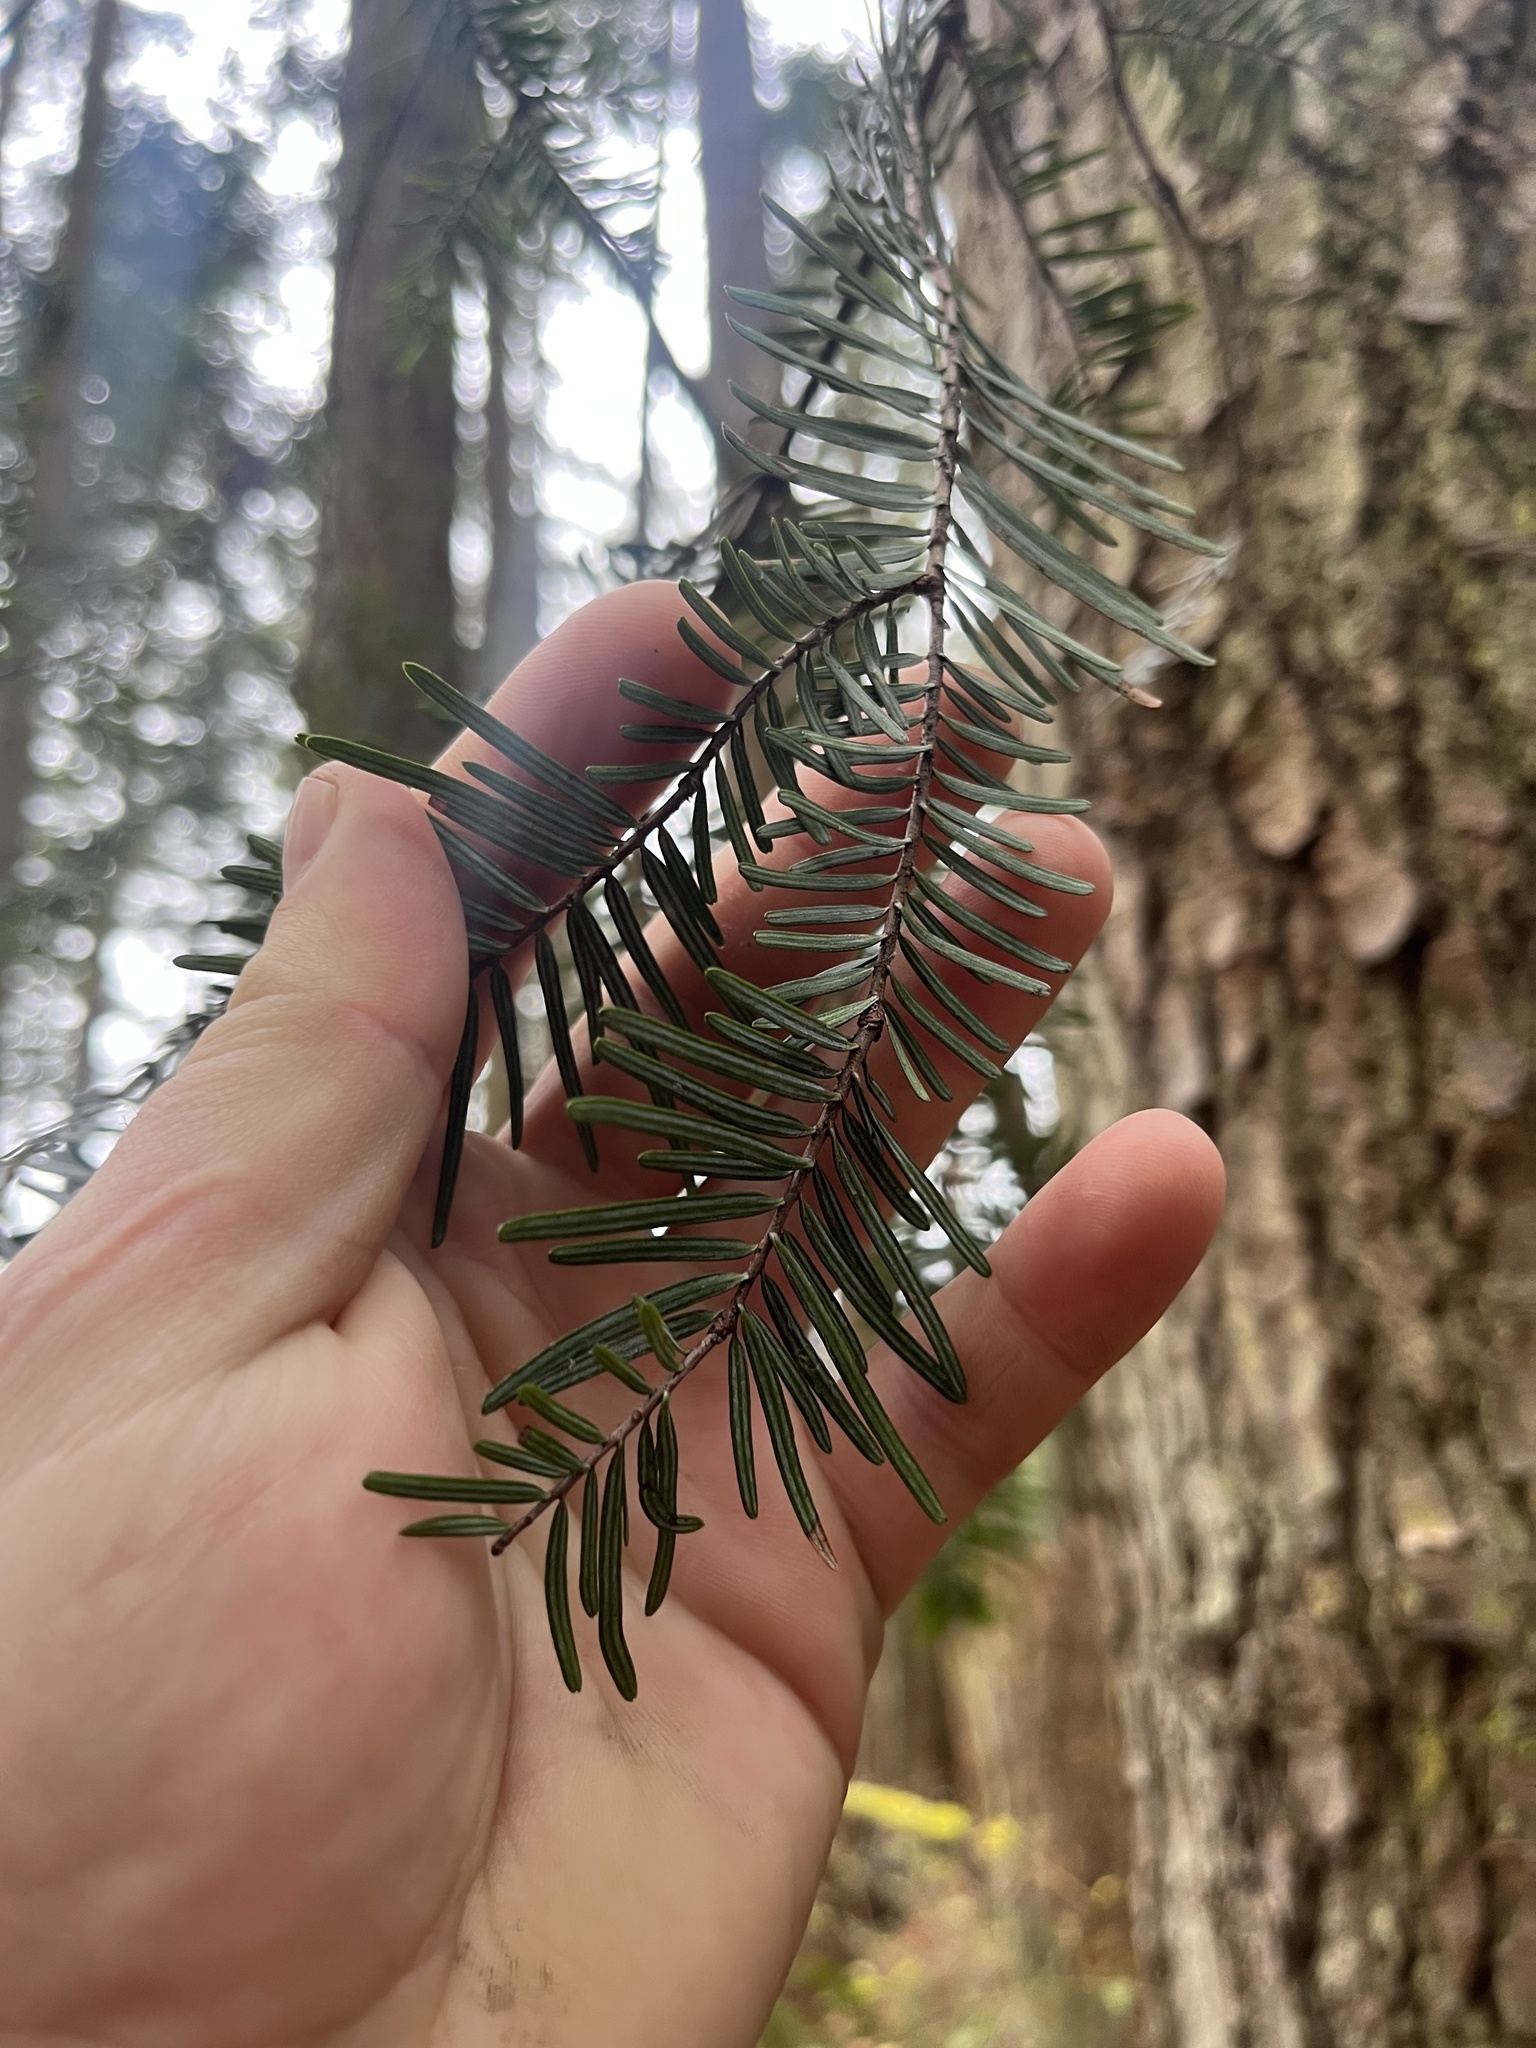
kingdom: Plantae
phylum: Tracheophyta
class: Pinopsida
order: Pinales
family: Pinaceae
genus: Abies
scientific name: Abies grandis
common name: Giant fir
